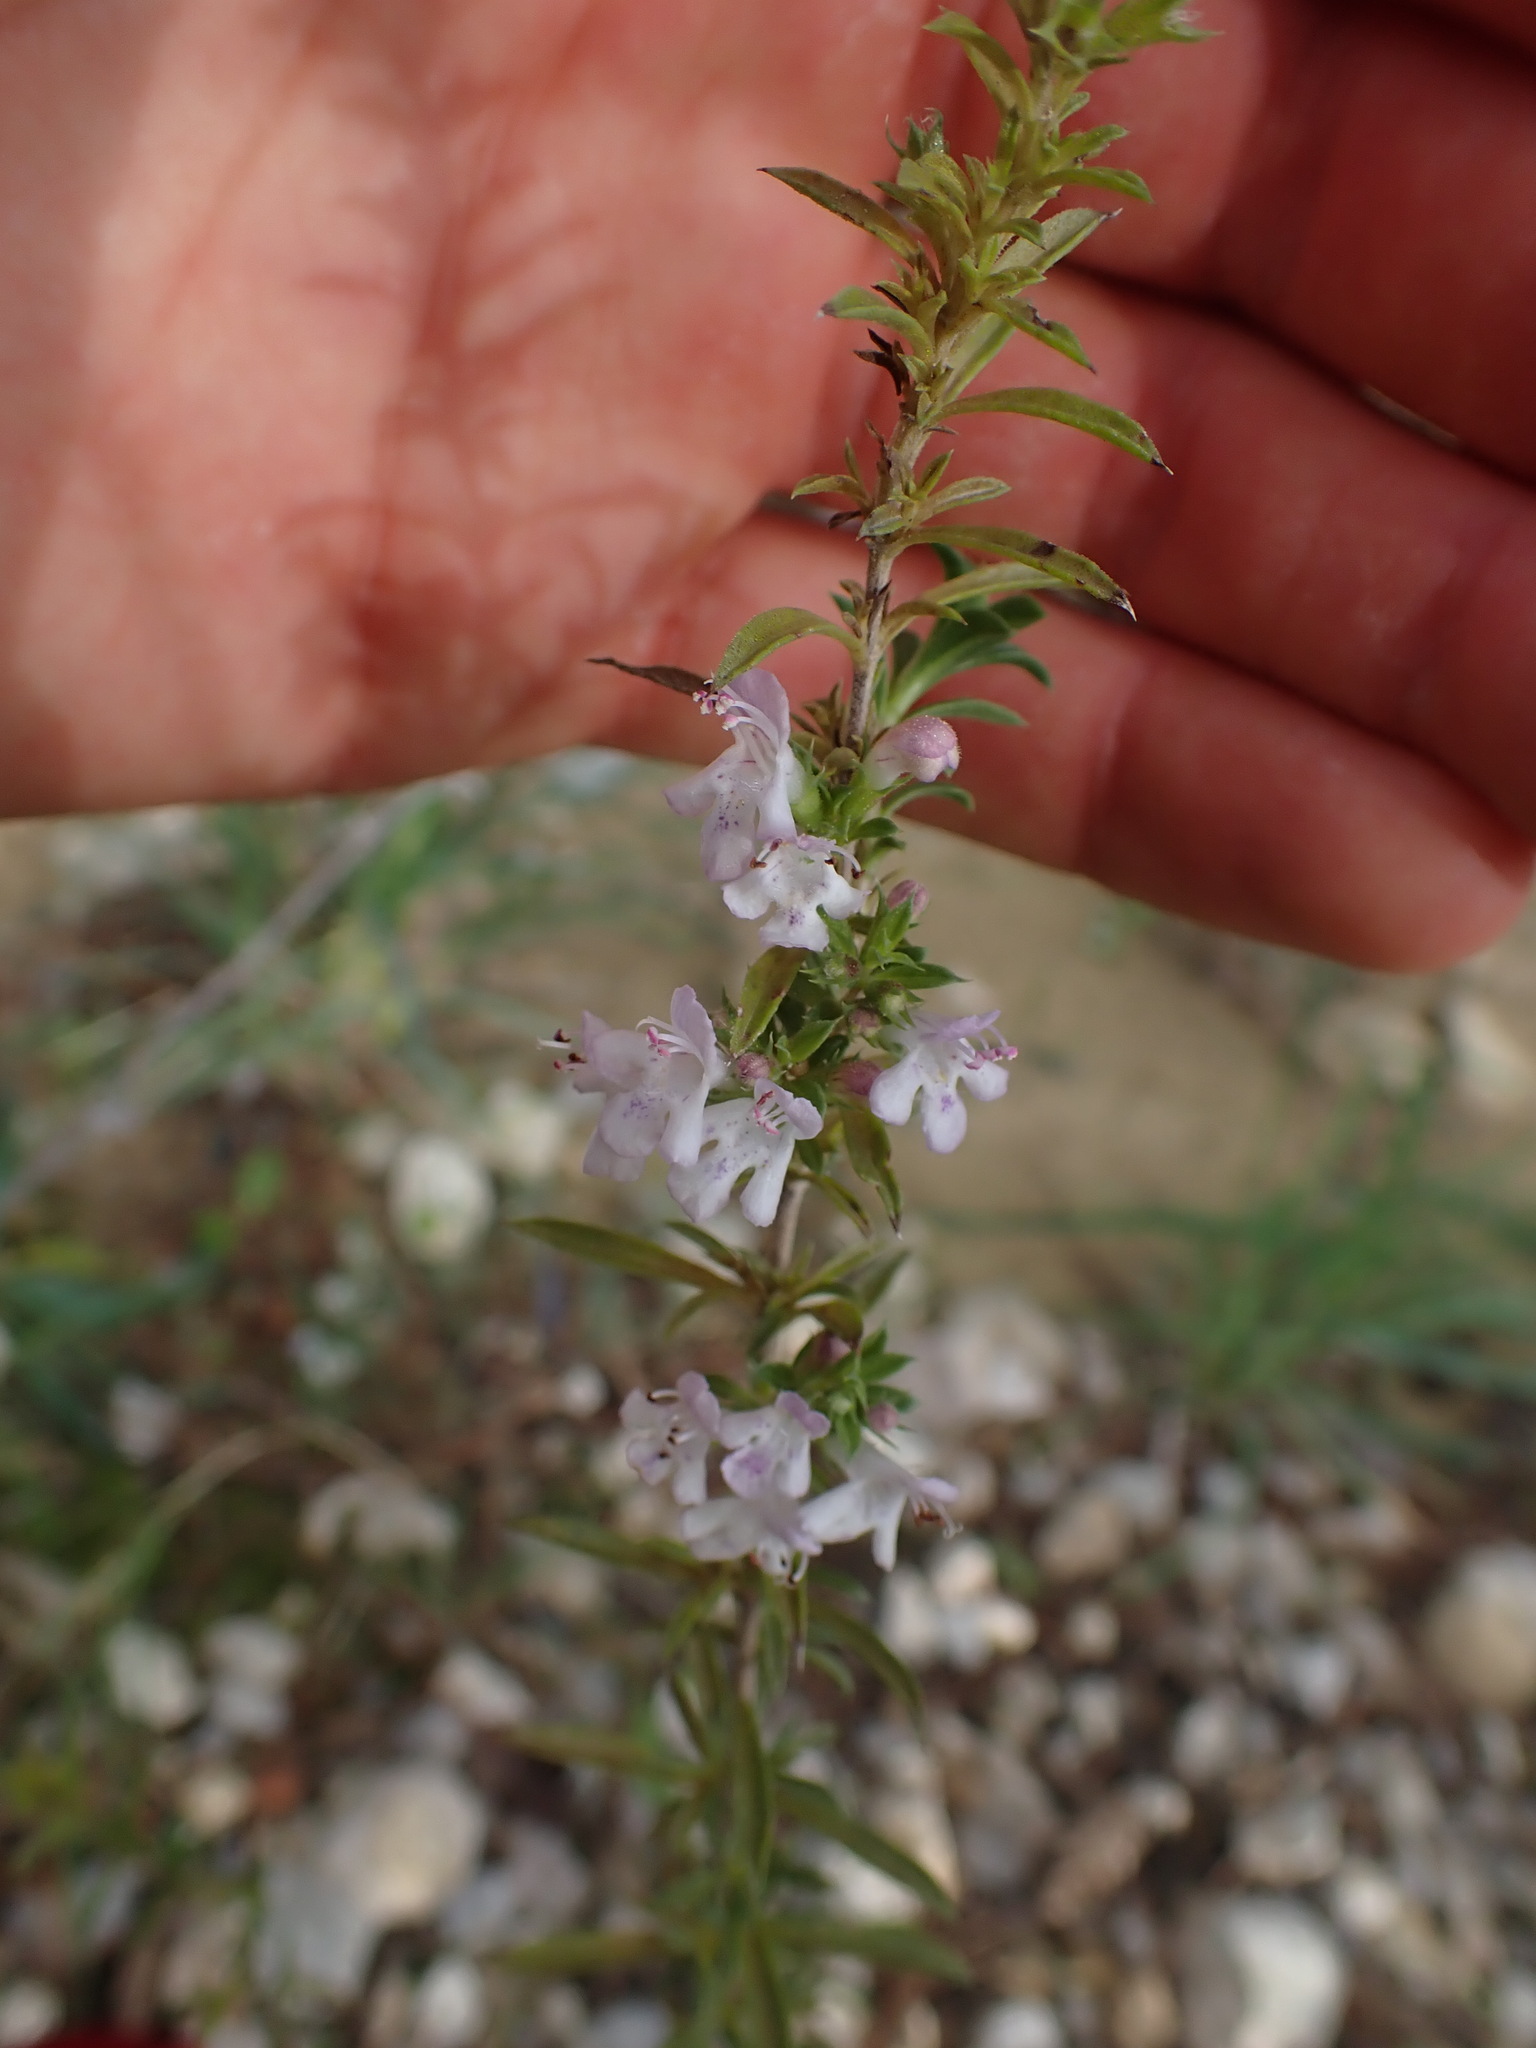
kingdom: Plantae
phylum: Tracheophyta
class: Magnoliopsida
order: Lamiales
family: Lamiaceae
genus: Satureja
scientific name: Satureja montana
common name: Winter savory
